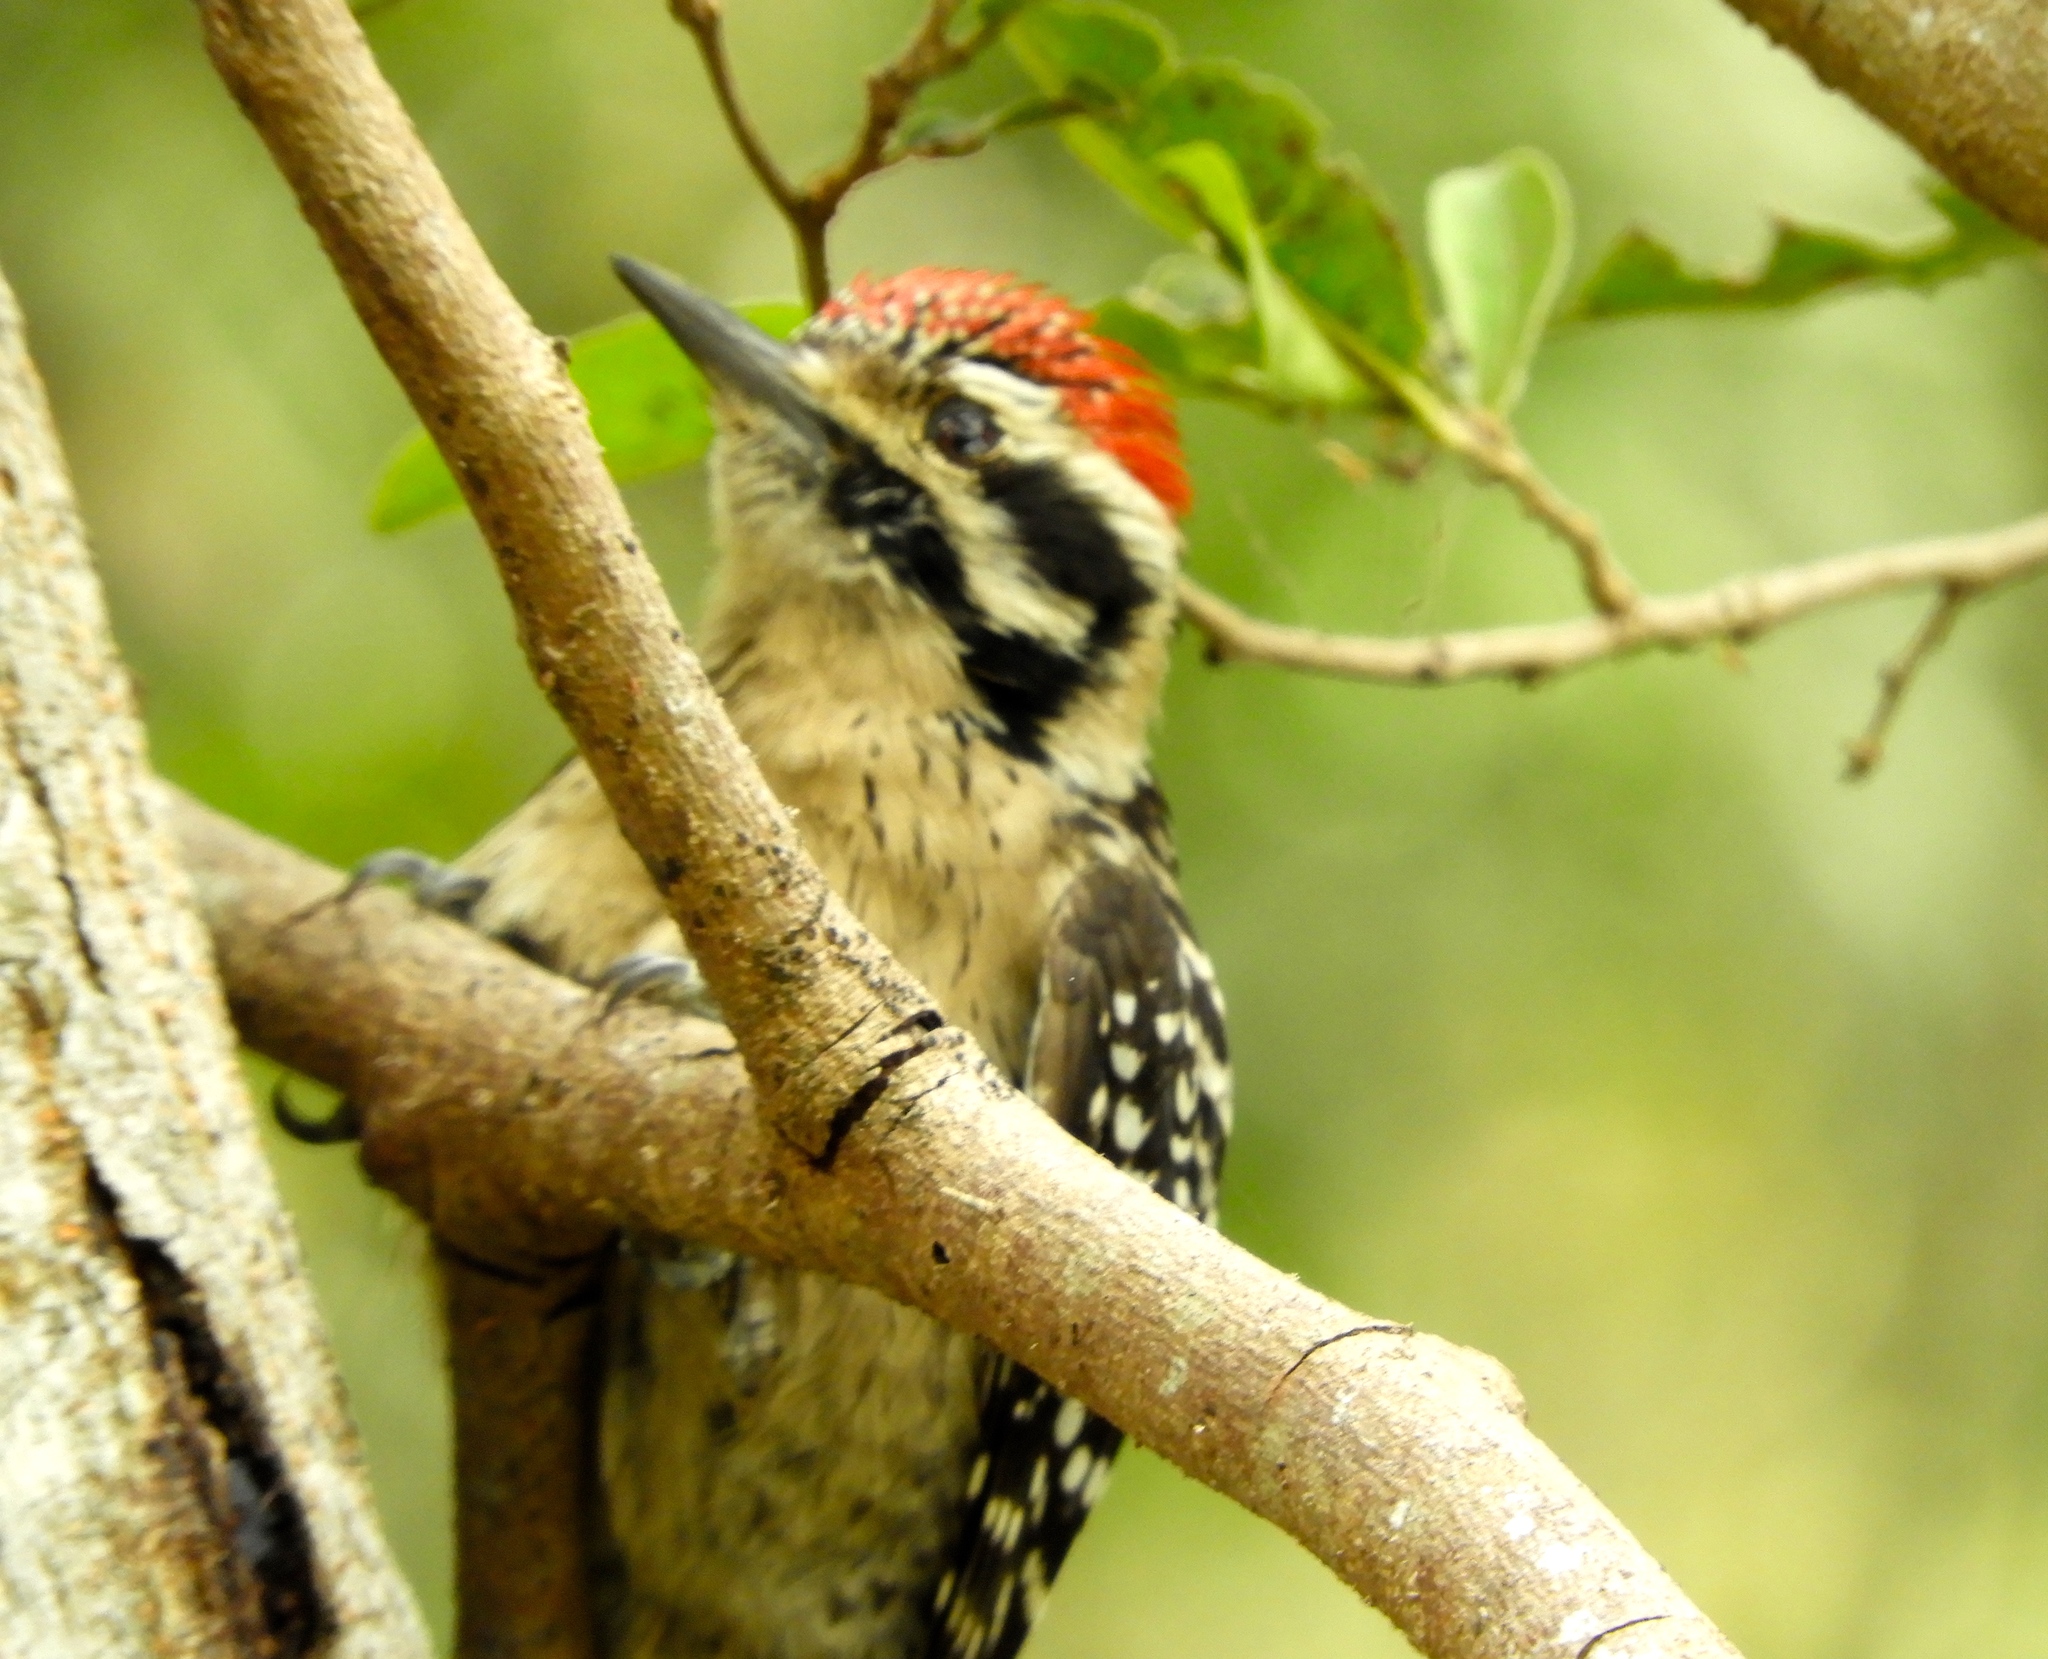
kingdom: Animalia
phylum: Chordata
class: Aves
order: Piciformes
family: Picidae
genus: Dryobates
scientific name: Dryobates scalaris
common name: Ladder-backed woodpecker
